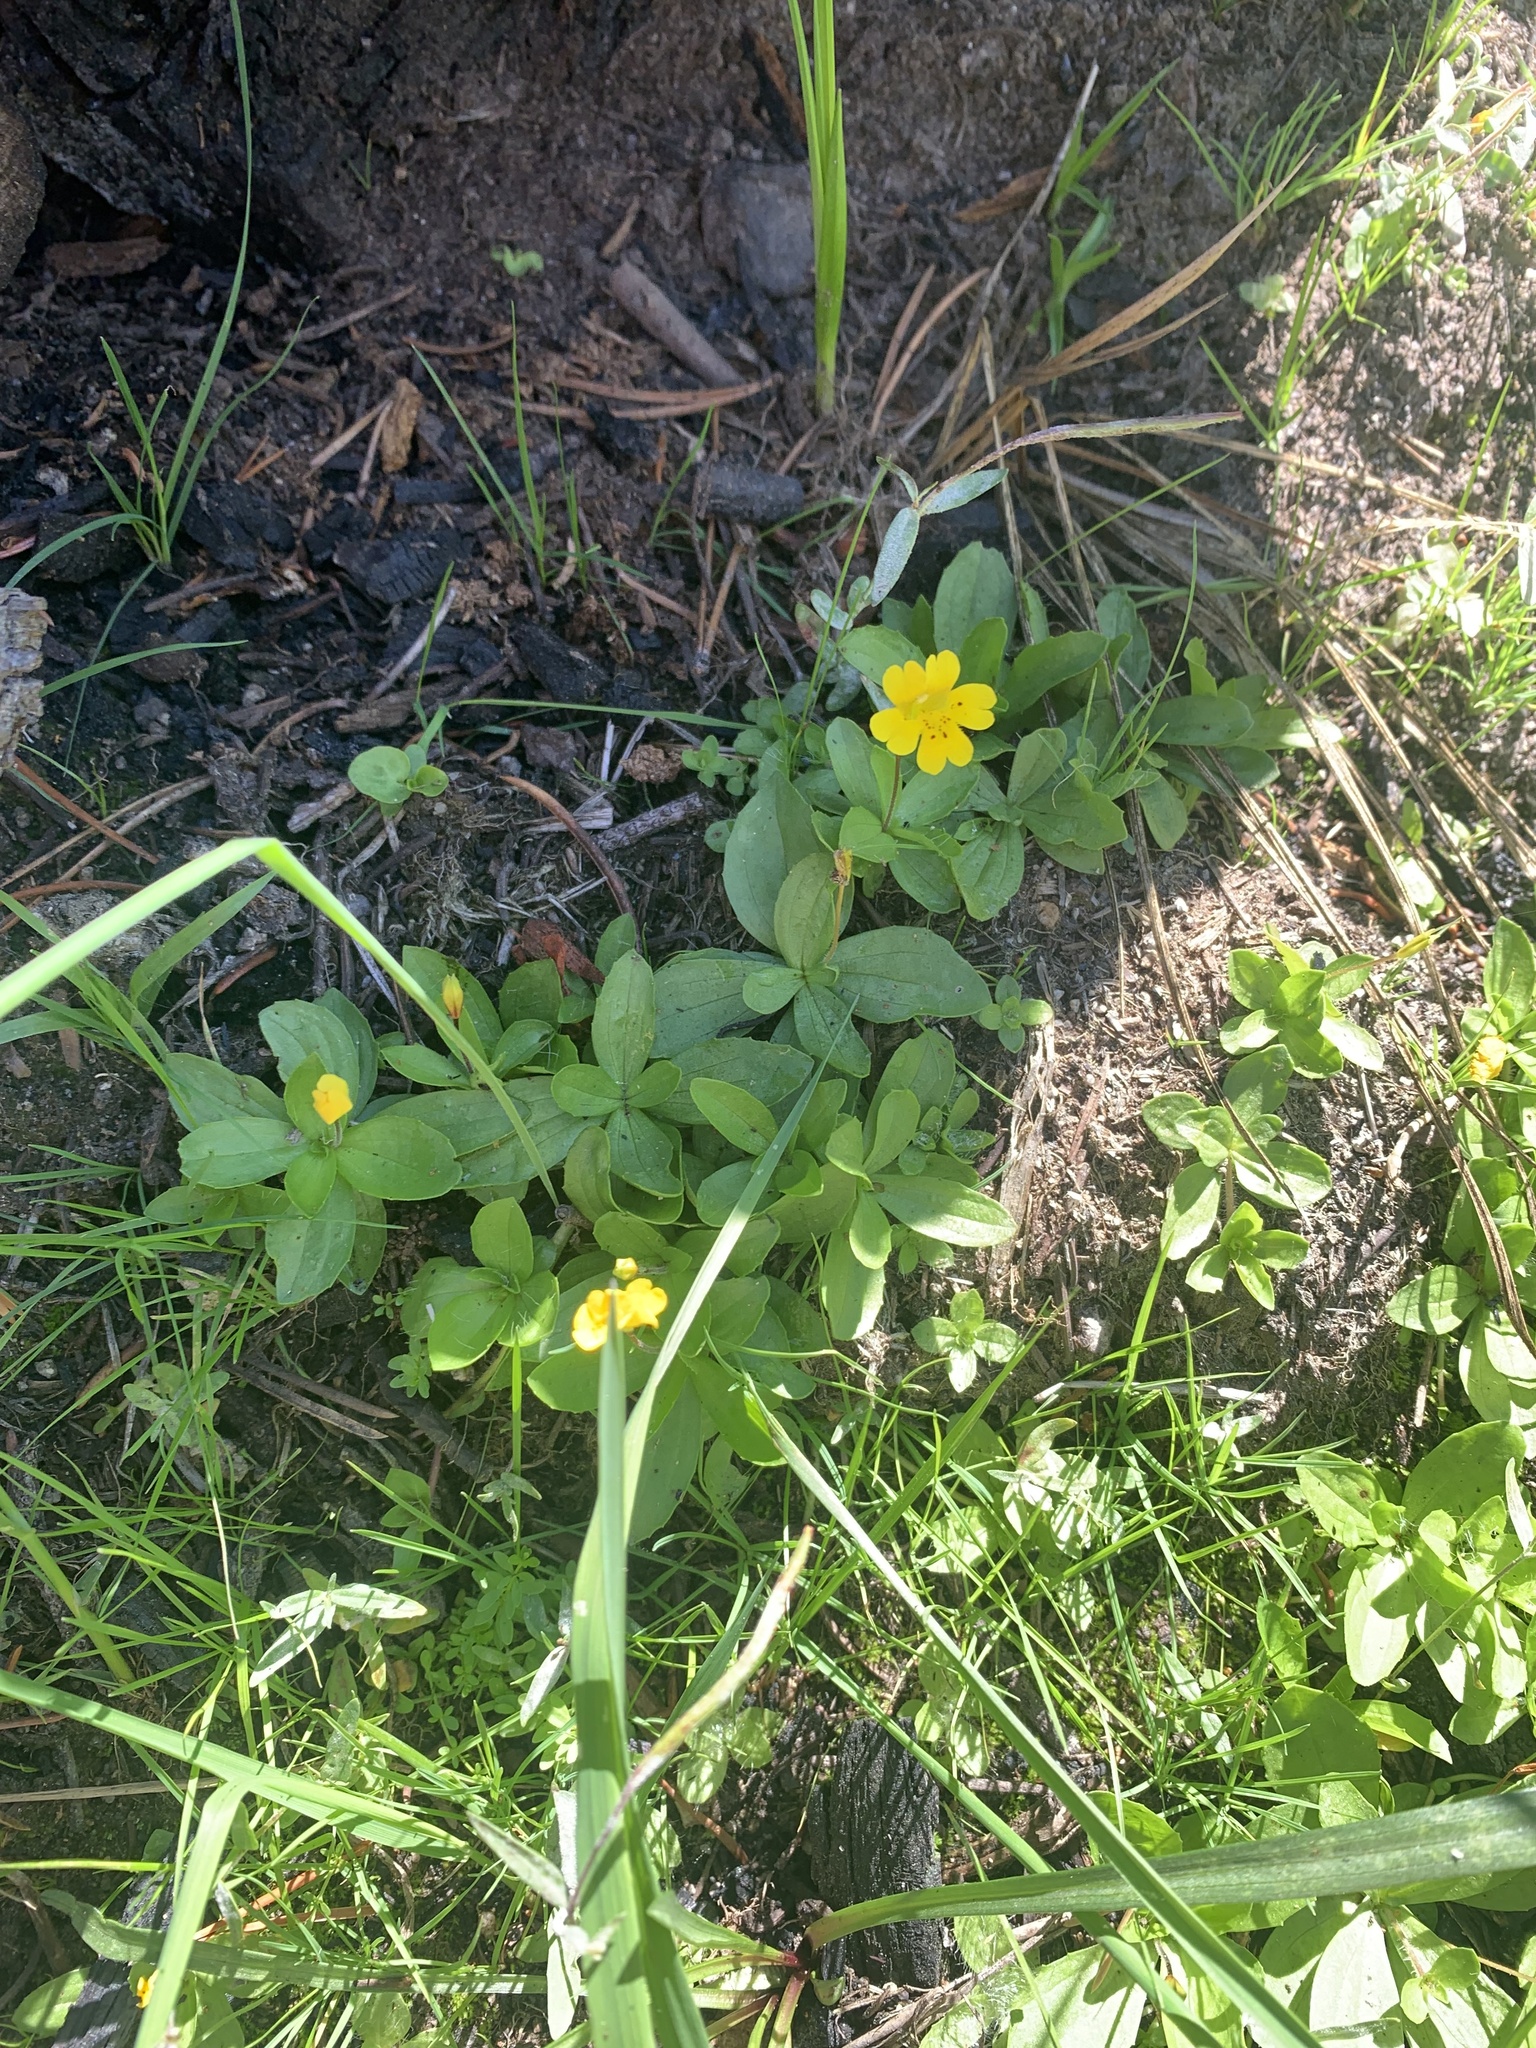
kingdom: Plantae
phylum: Tracheophyta
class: Magnoliopsida
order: Lamiales
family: Phrymaceae
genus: Erythranthe
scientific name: Erythranthe primuloides
